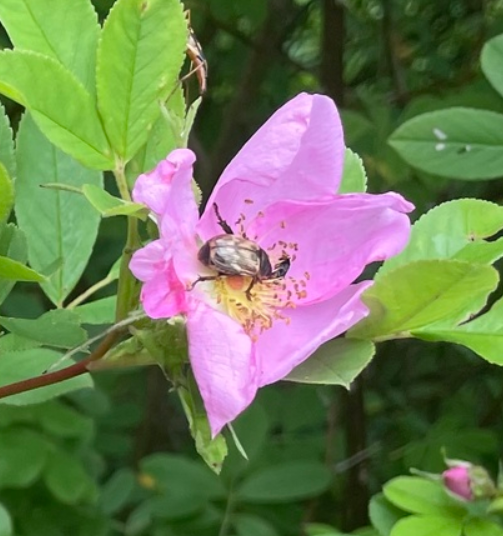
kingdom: Animalia
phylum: Arthropoda
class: Insecta
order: Coleoptera
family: Scarabaeidae
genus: Exomala
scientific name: Exomala orientalis
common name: Oriental beetle
